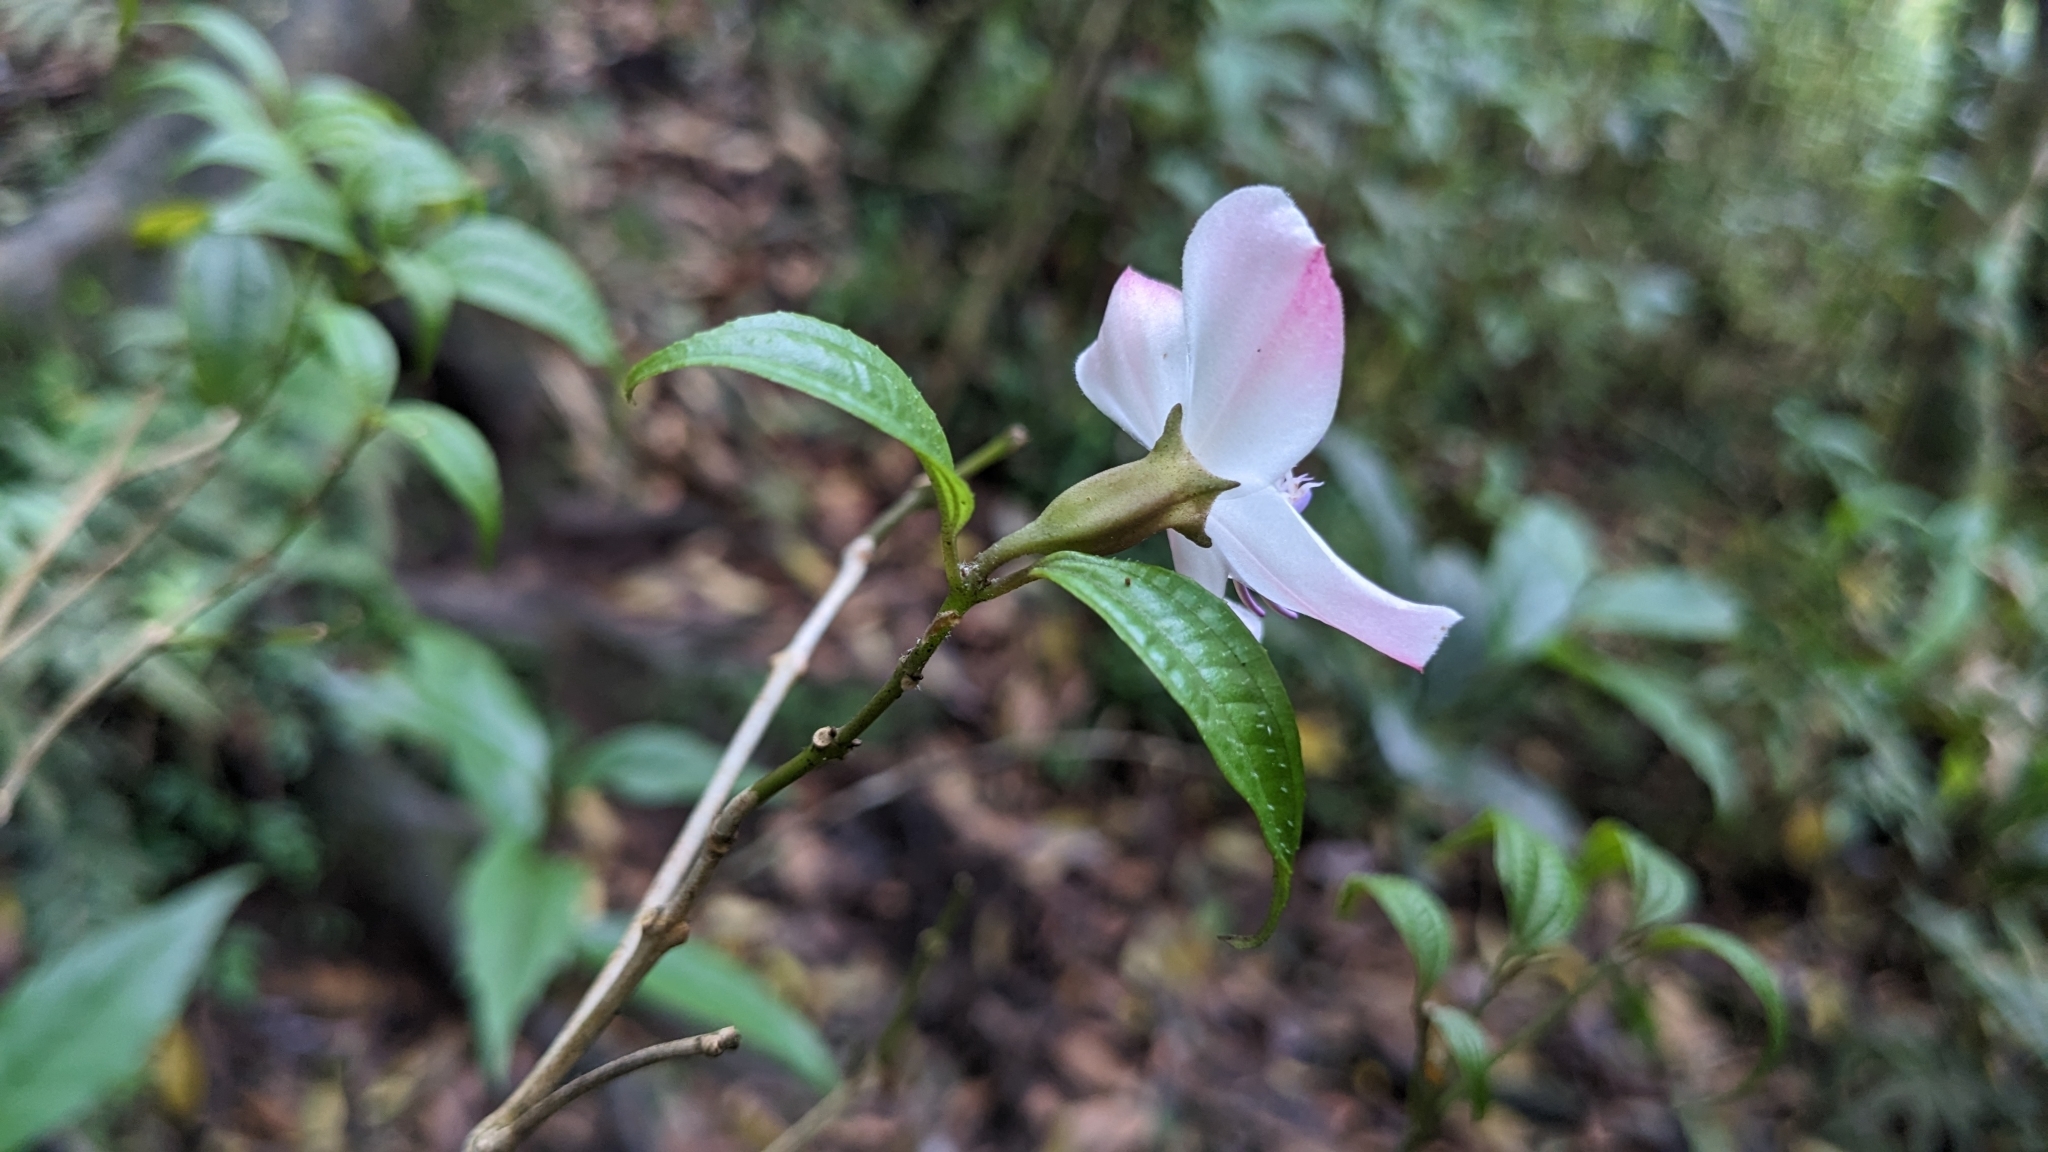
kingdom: Plantae
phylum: Tracheophyta
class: Magnoliopsida
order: Myrtales
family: Melastomataceae
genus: Barthea
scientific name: Barthea barthei
